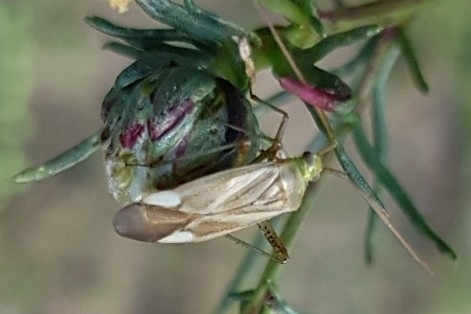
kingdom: Animalia
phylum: Arthropoda
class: Insecta
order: Hemiptera
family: Miridae
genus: Adelphocoris
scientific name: Adelphocoris lineolatus
